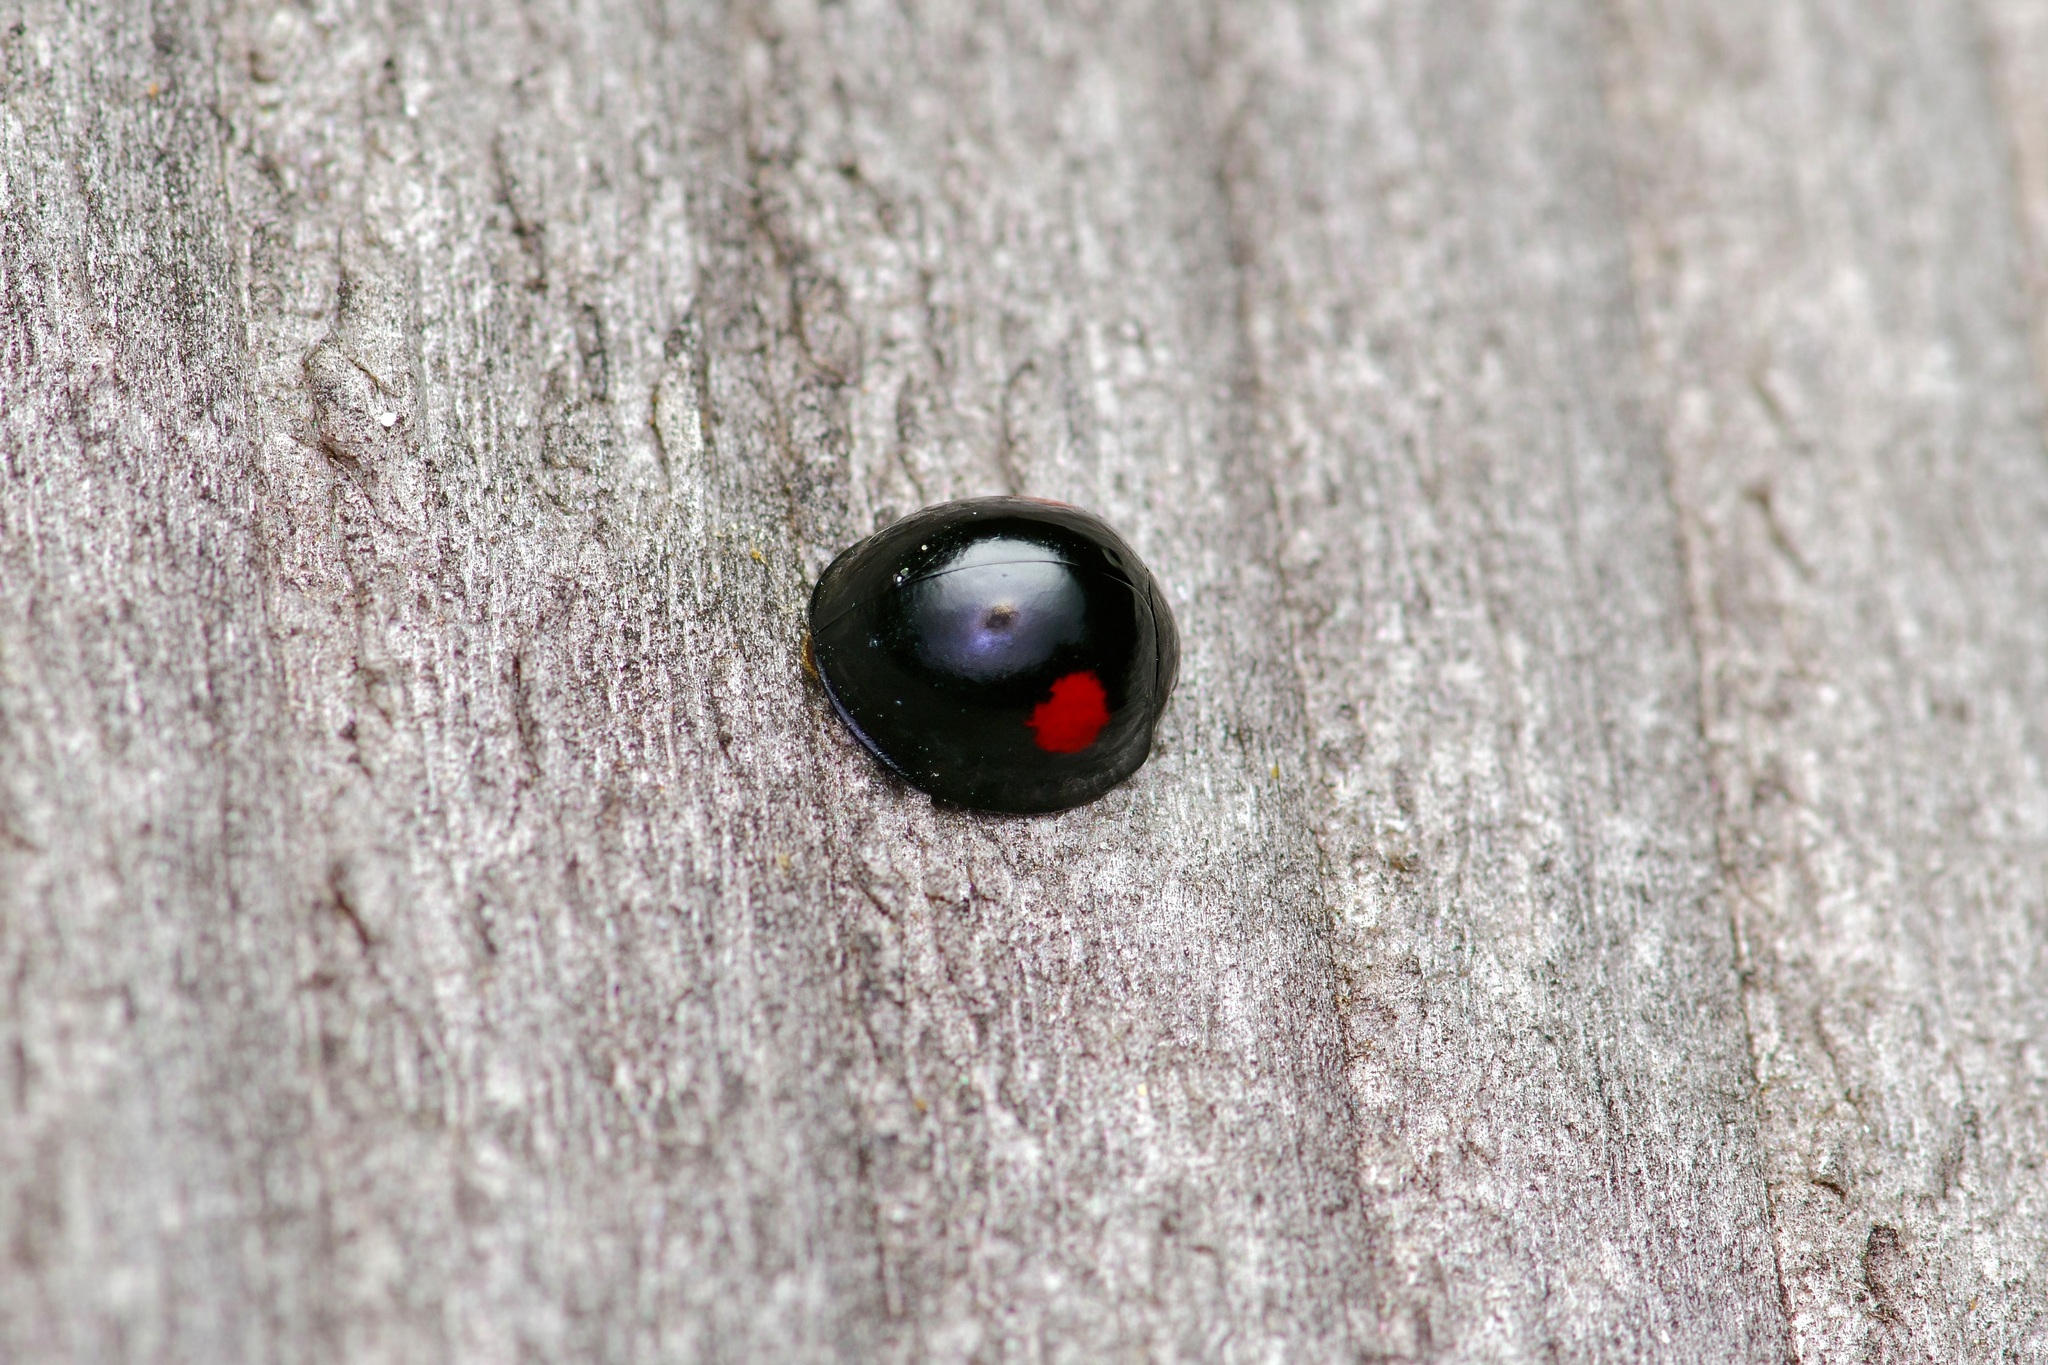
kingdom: Animalia
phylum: Arthropoda
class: Insecta
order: Coleoptera
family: Coccinellidae
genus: Chilocorus
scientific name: Chilocorus stigma
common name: Twicestabbed lady beetle
